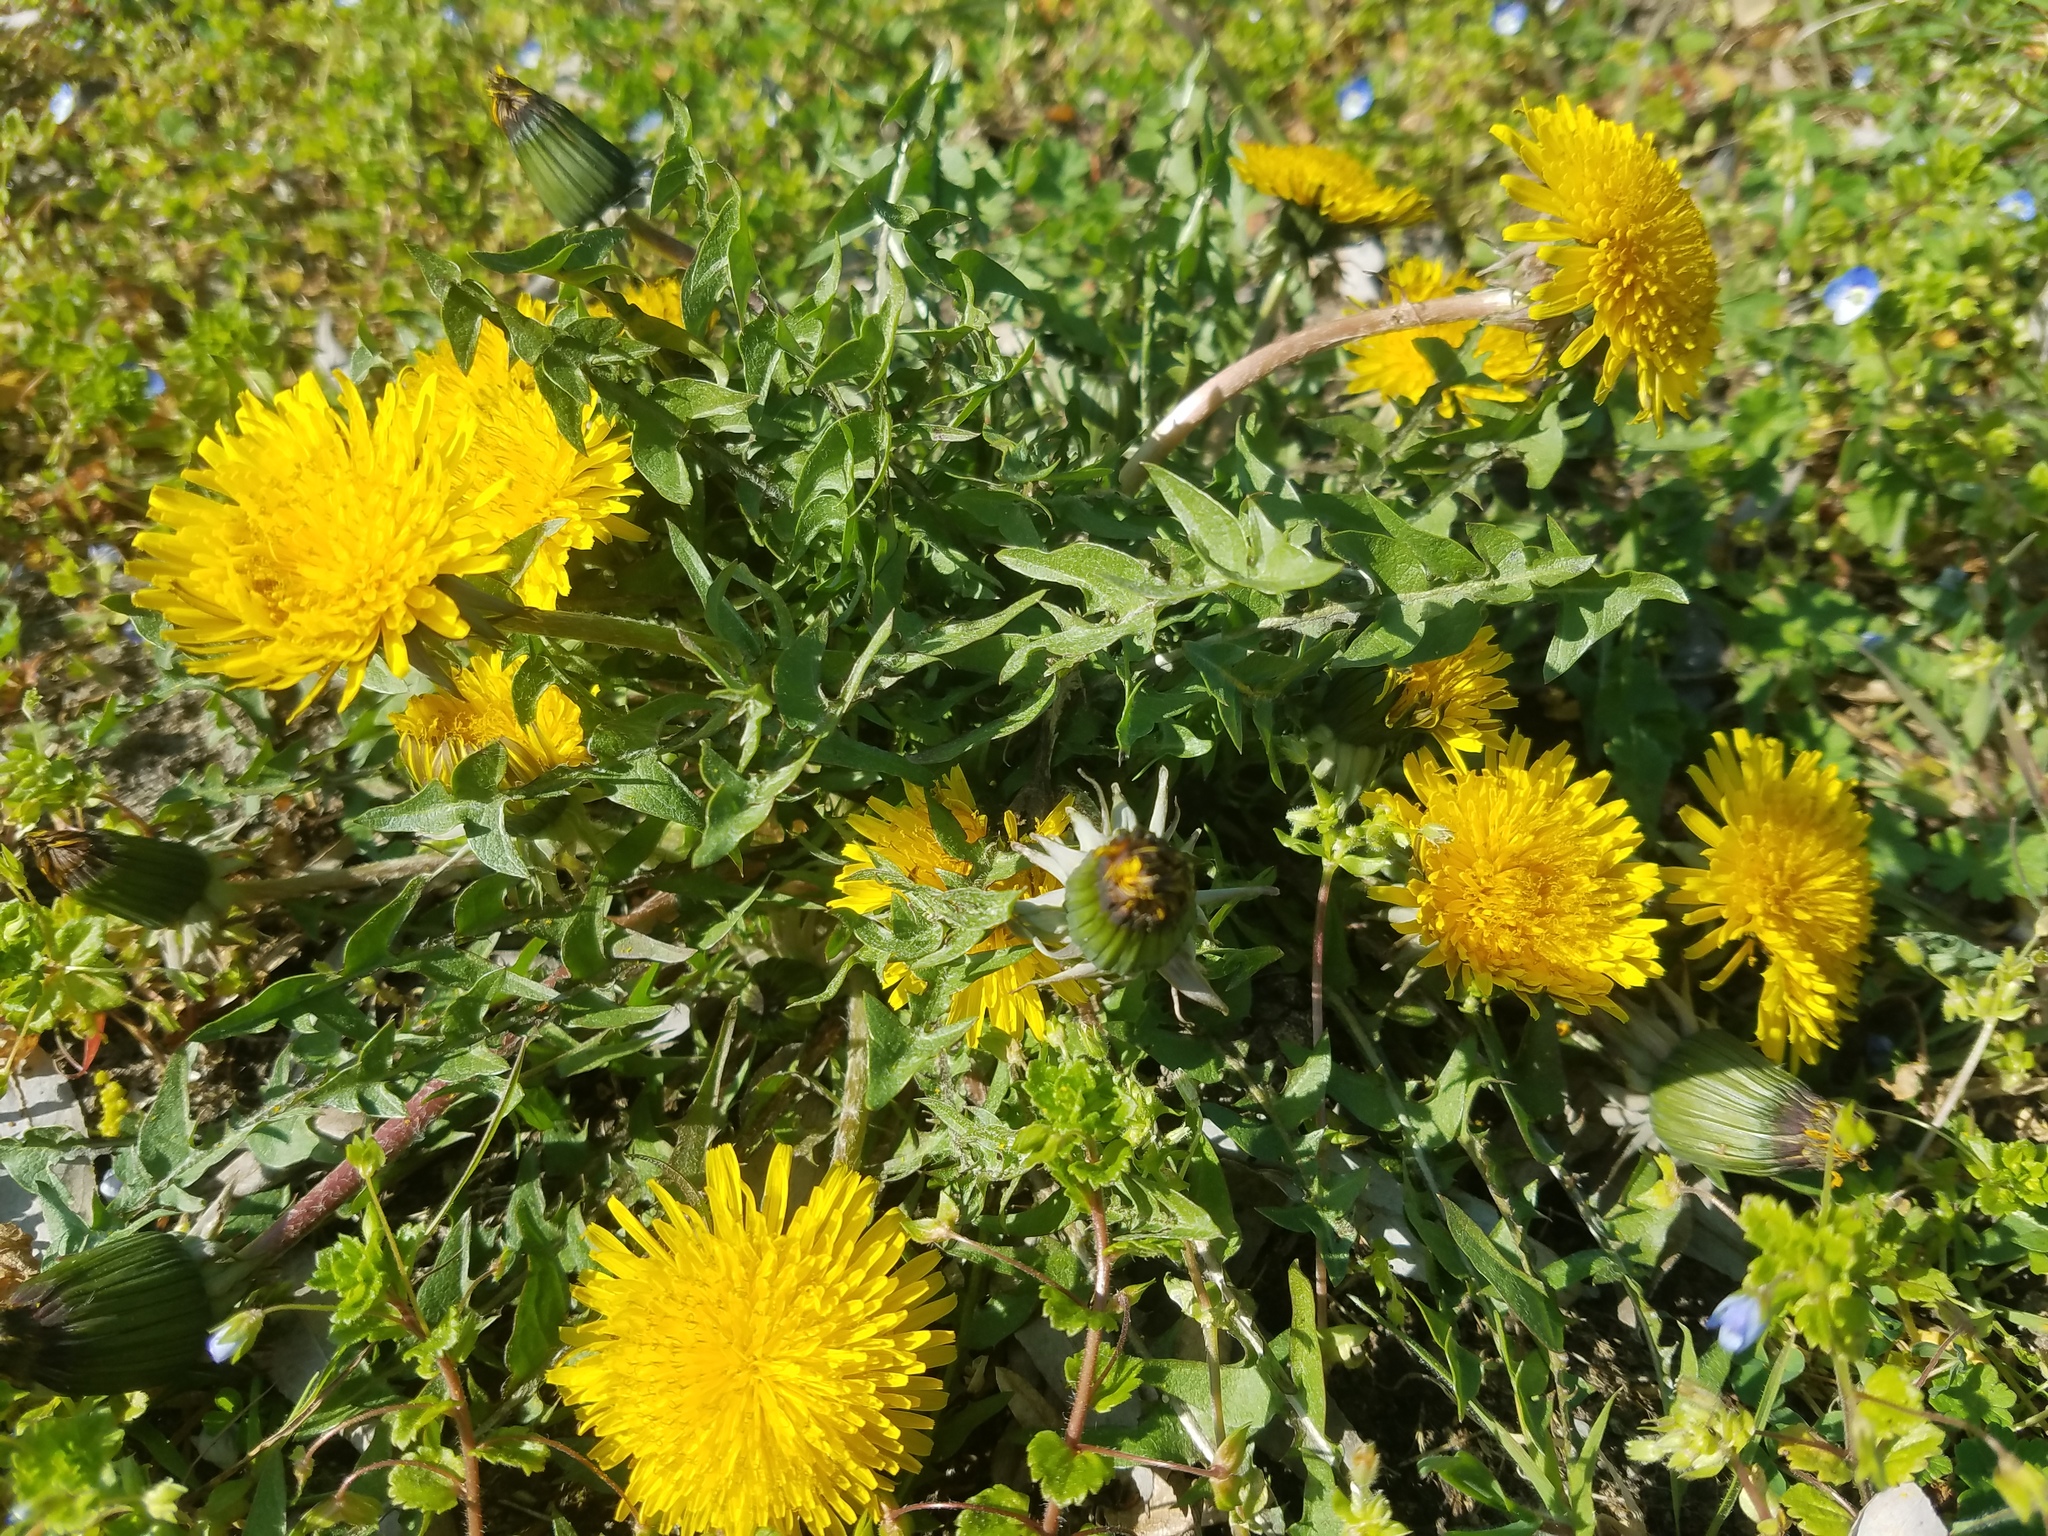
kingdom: Plantae
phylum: Tracheophyta
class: Magnoliopsida
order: Asterales
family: Asteraceae
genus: Taraxacum
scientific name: Taraxacum officinale
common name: Common dandelion
